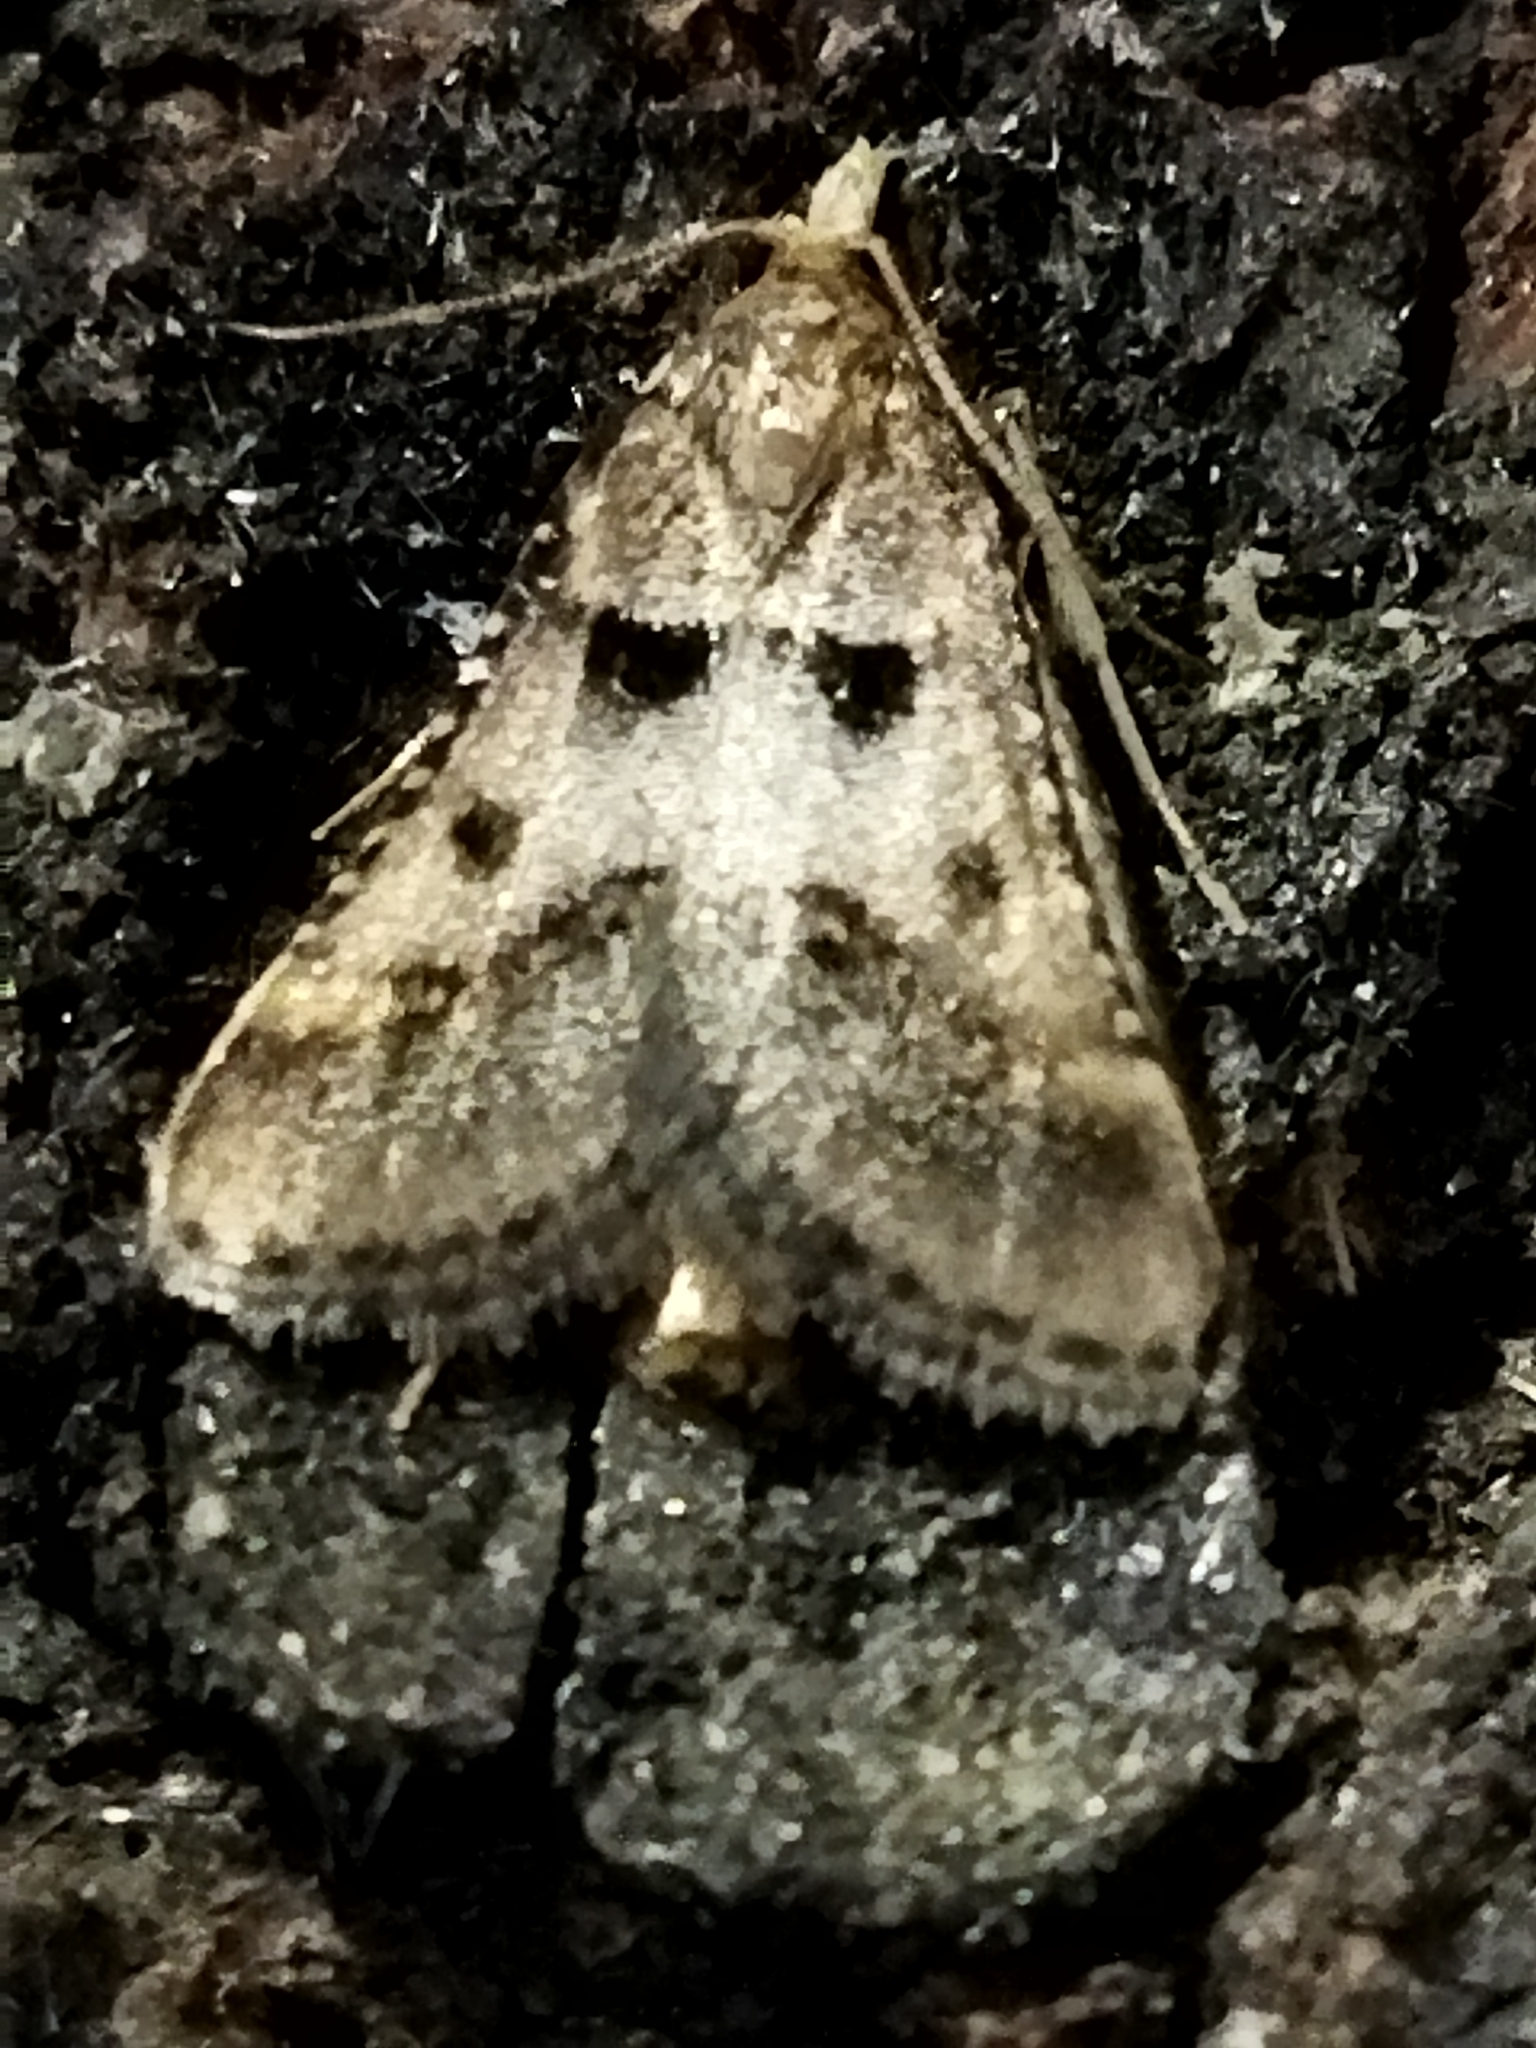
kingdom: Animalia
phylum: Arthropoda
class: Insecta
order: Lepidoptera
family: Pyralidae
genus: Stemmatophora
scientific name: Stemmatophora brunnealis
